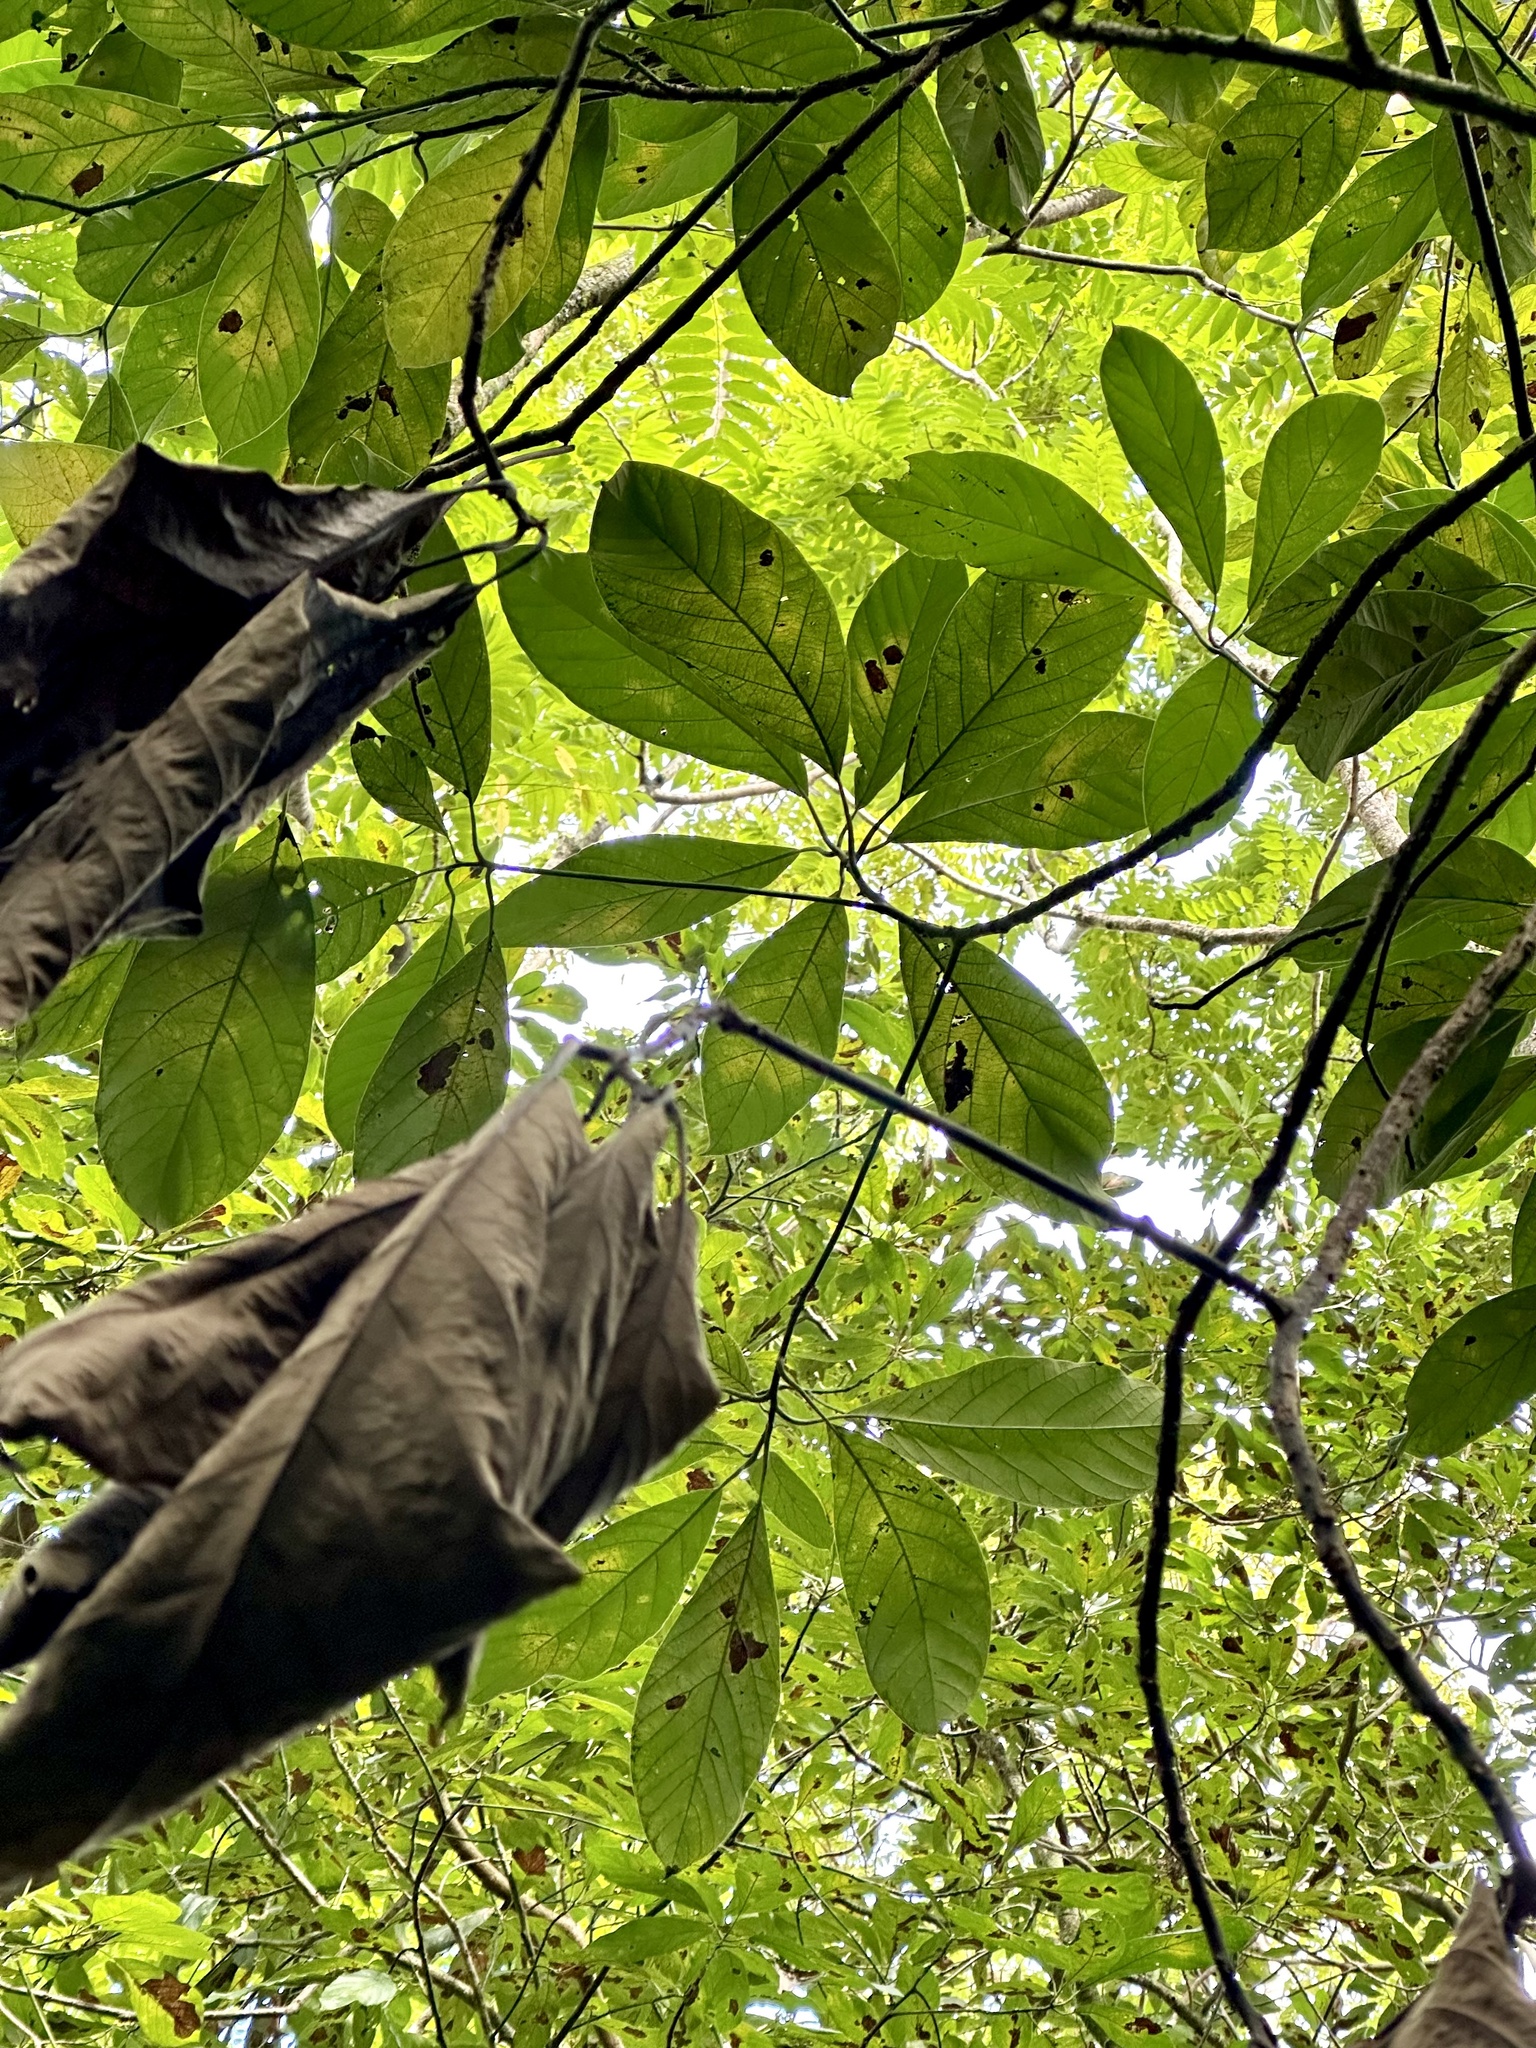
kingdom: Plantae
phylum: Tracheophyta
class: Magnoliopsida
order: Laurales
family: Lauraceae
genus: Persea
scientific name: Persea americana
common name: Avocado
